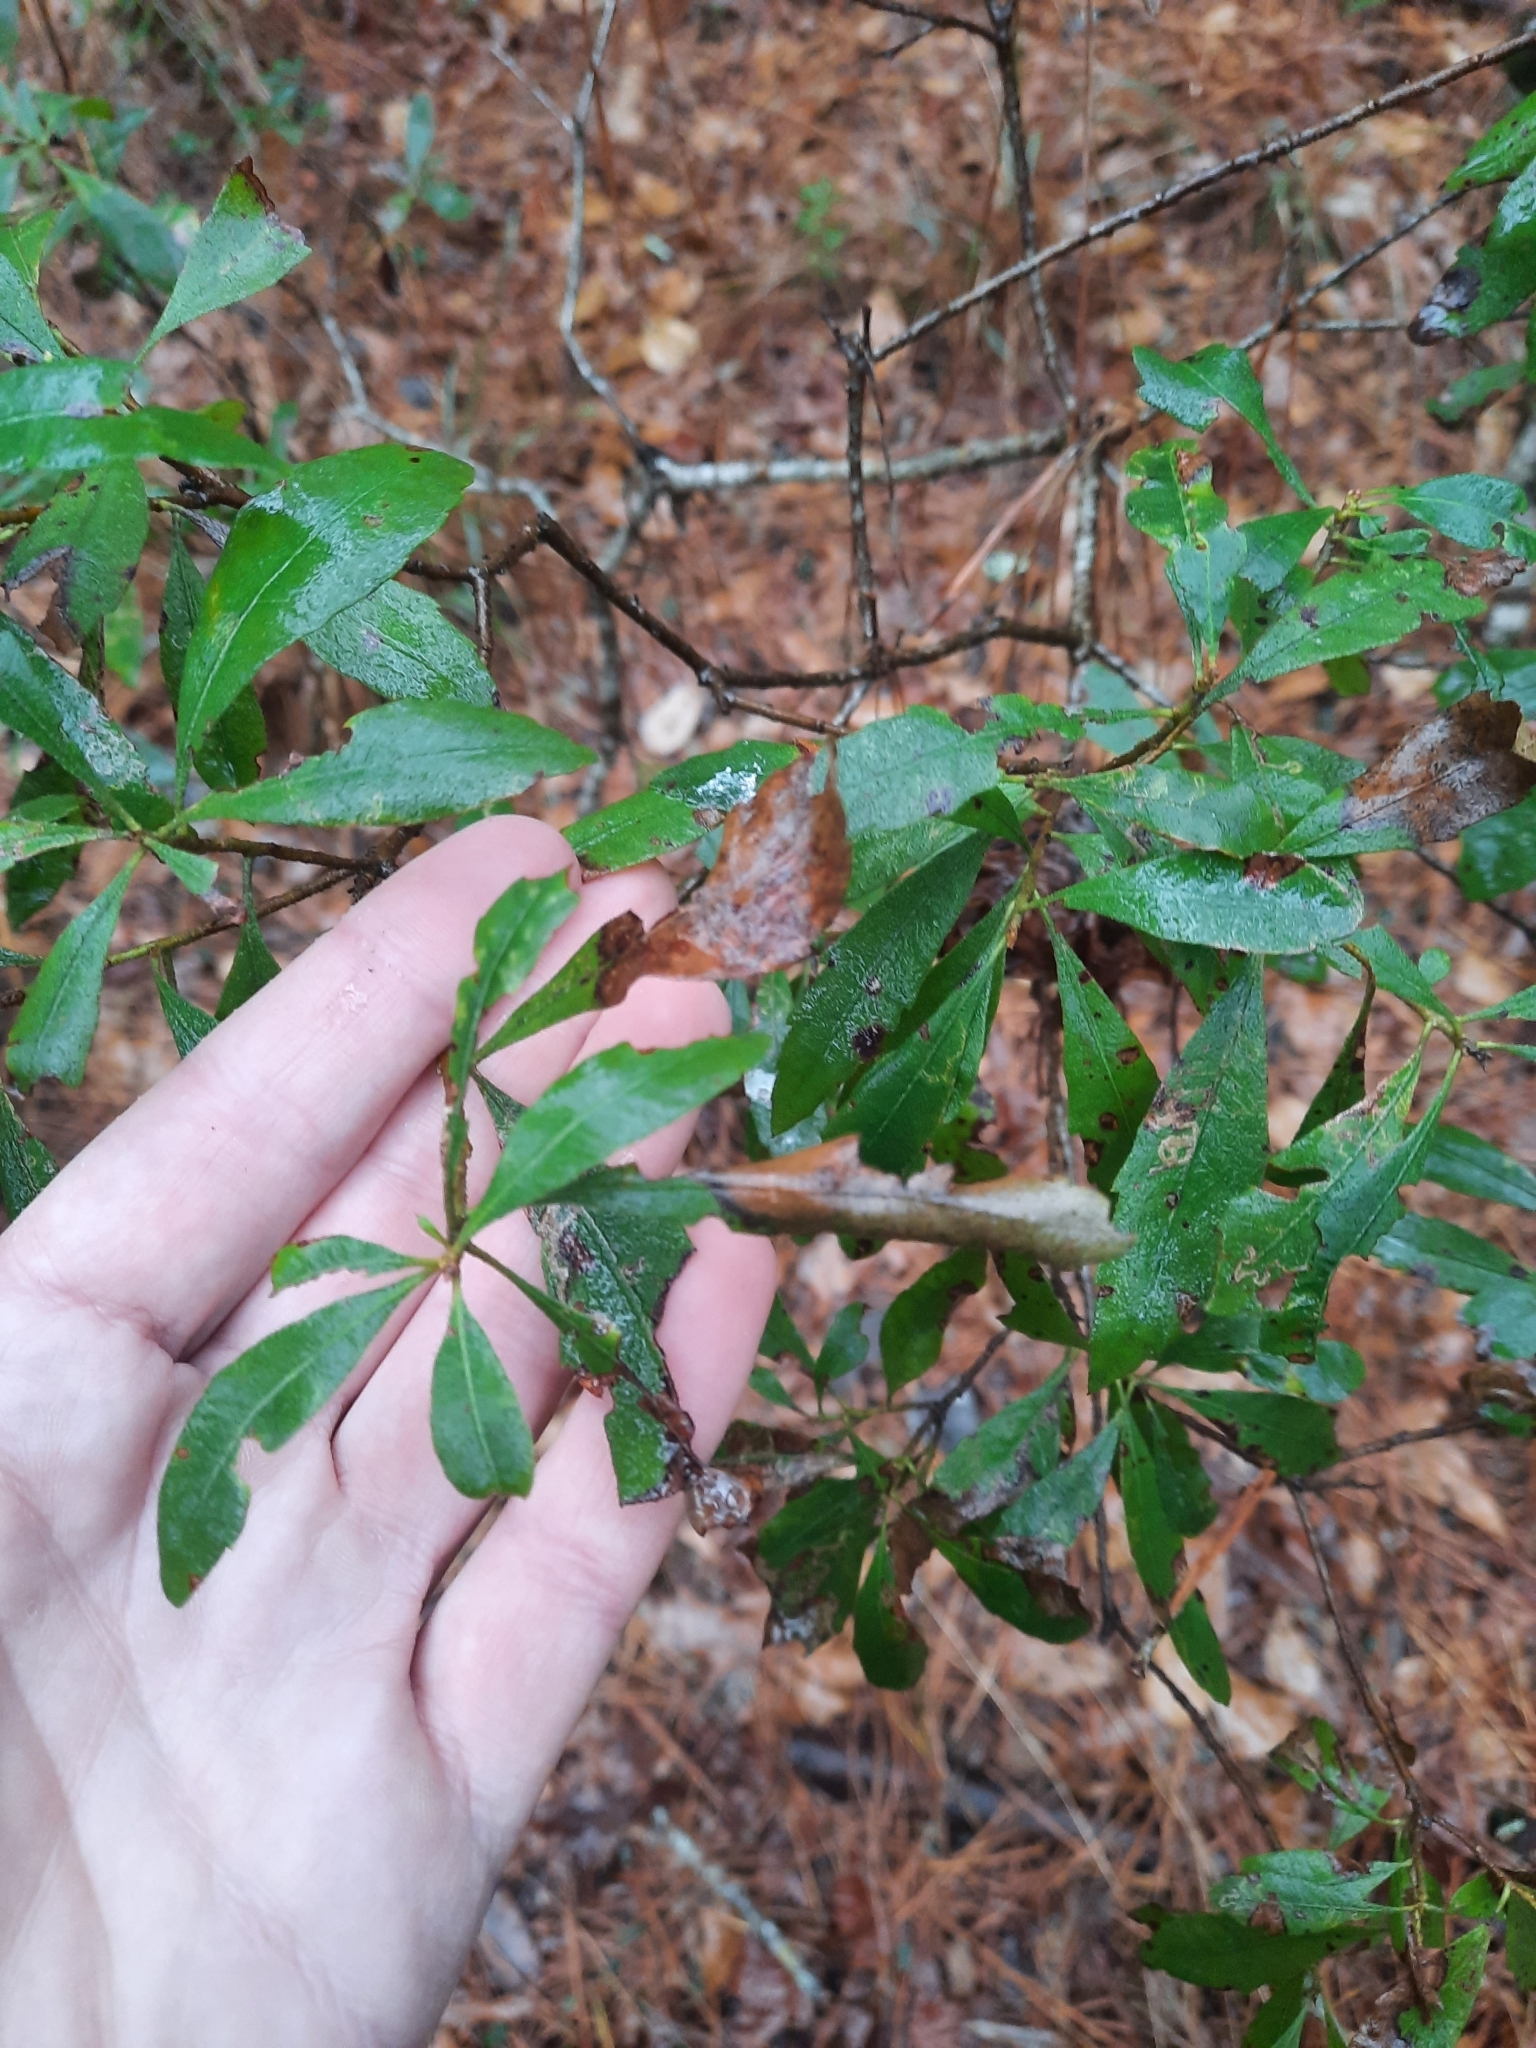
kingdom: Plantae
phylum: Tracheophyta
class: Magnoliopsida
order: Fagales
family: Myricaceae
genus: Morella
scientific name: Morella cerifera
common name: Wax myrtle
